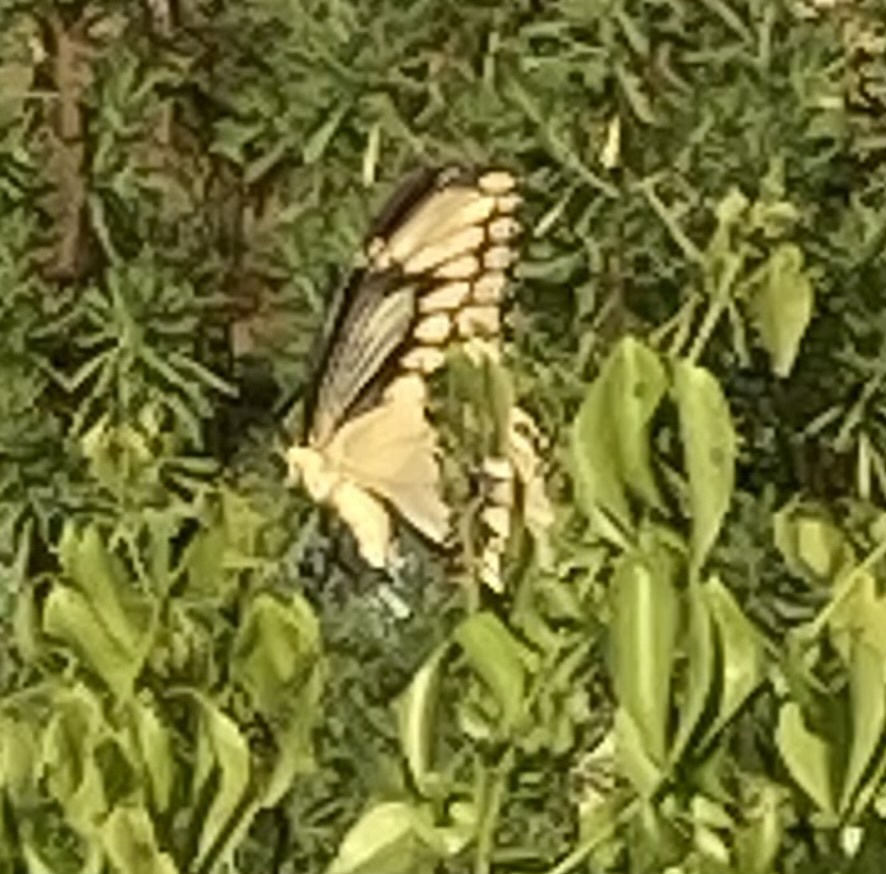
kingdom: Animalia
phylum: Arthropoda
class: Insecta
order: Lepidoptera
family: Papilionidae
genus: Papilio
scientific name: Papilio cresphontes
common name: Giant swallowtail
